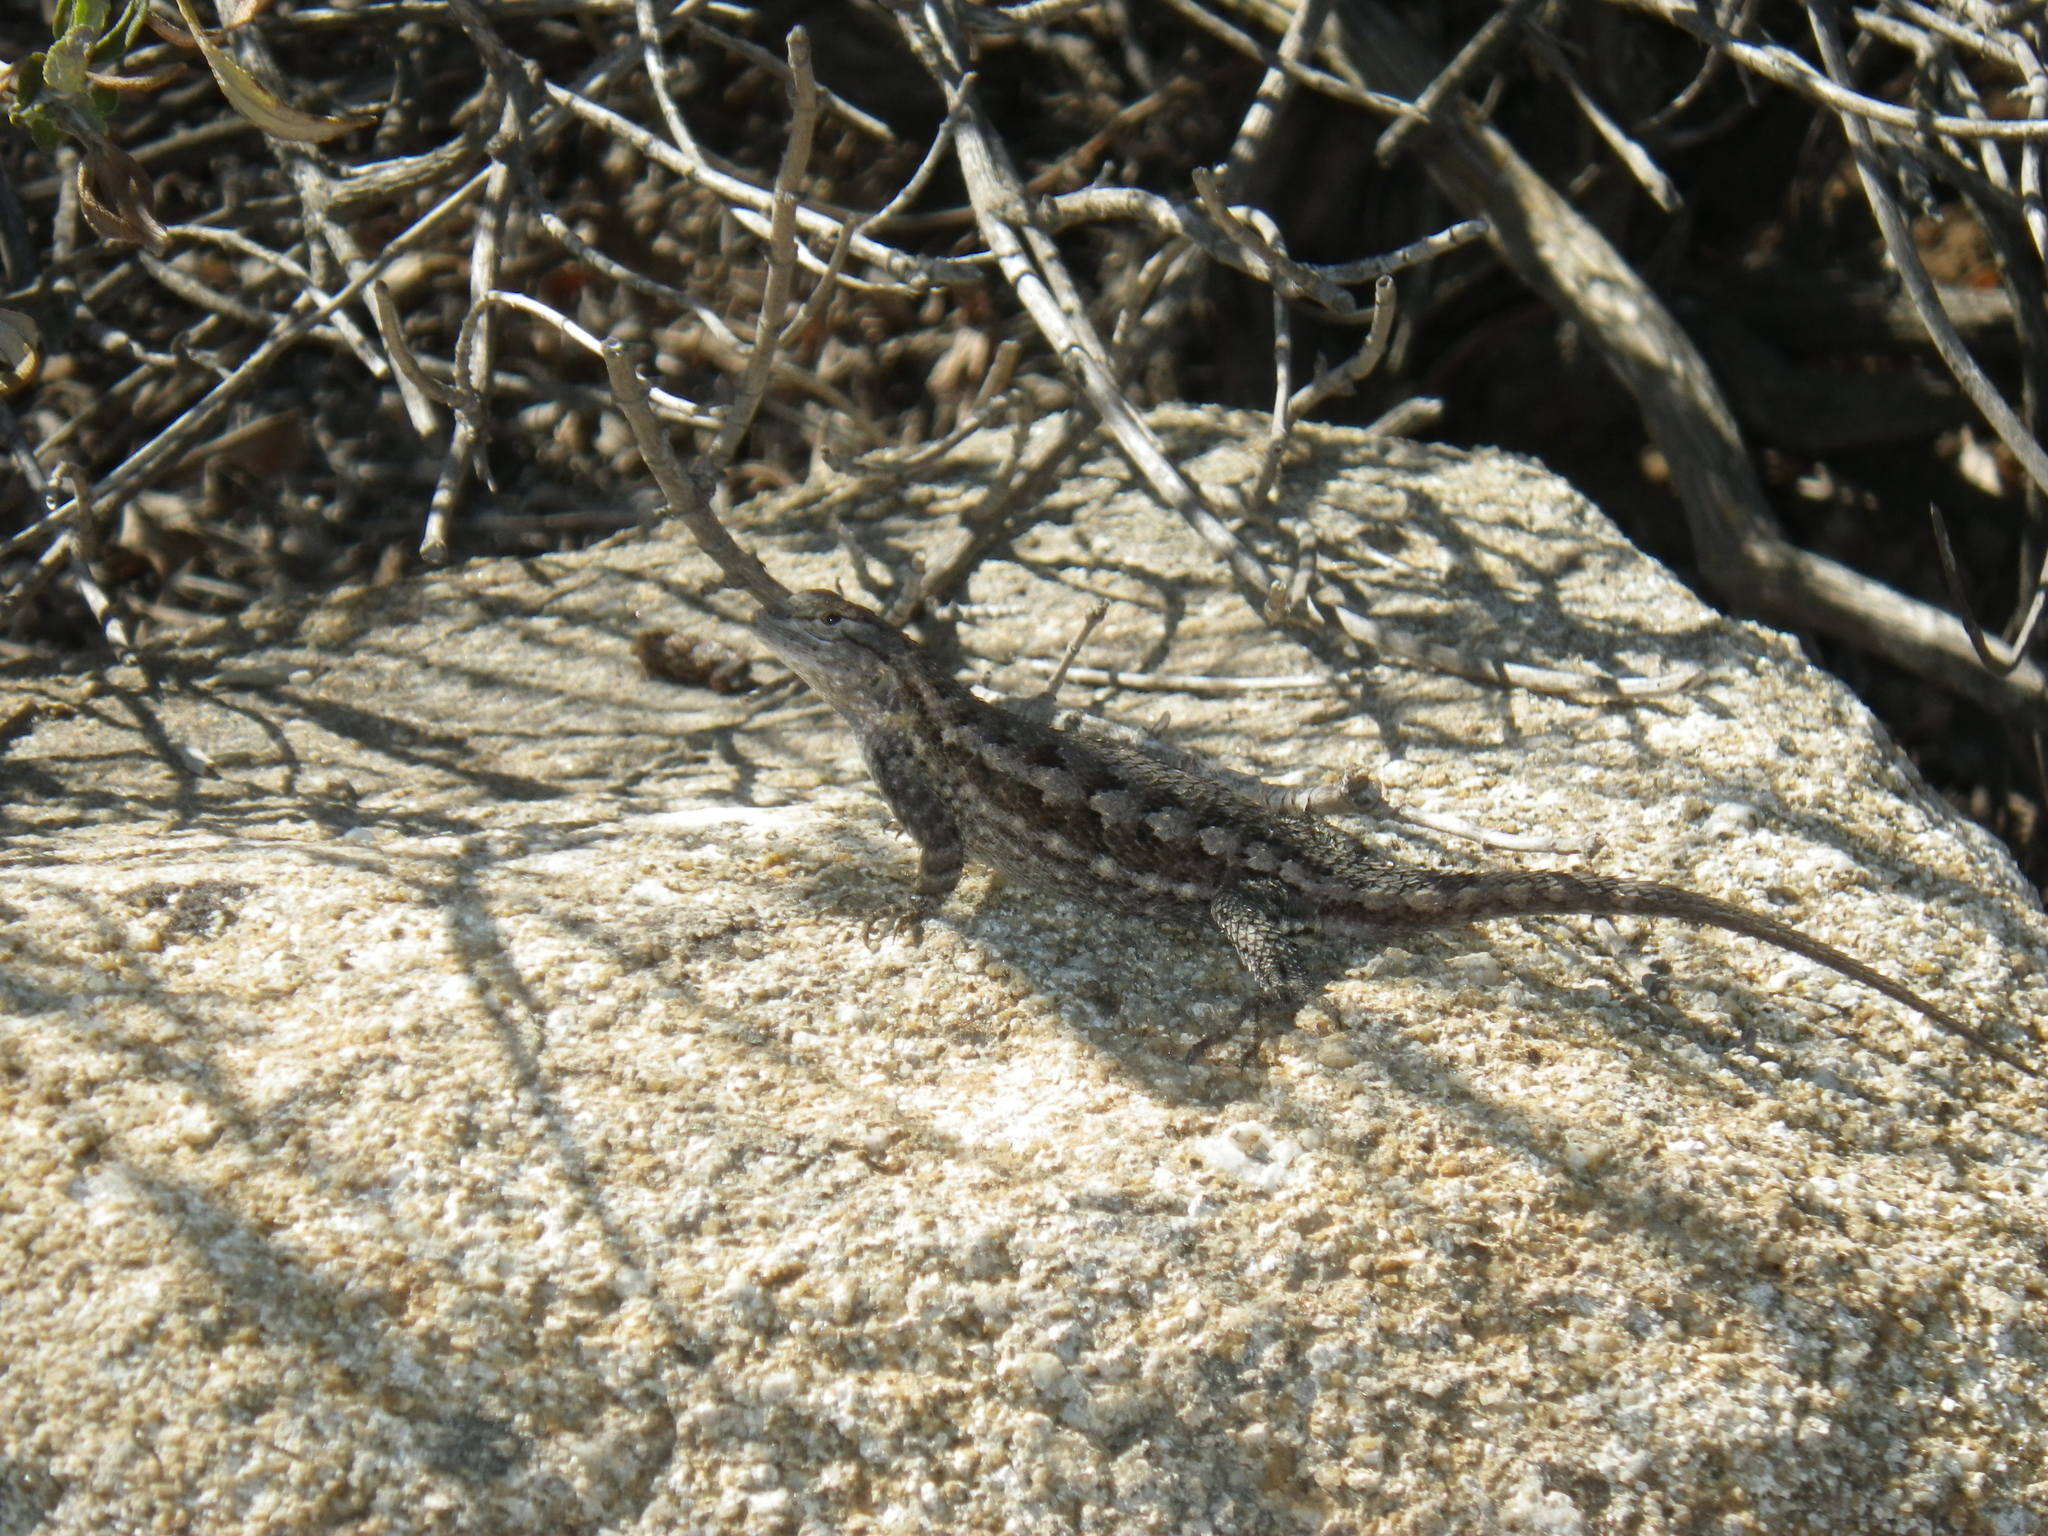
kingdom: Animalia
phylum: Chordata
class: Squamata
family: Phrynosomatidae
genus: Sceloporus
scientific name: Sceloporus occidentalis
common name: Western fence lizard
